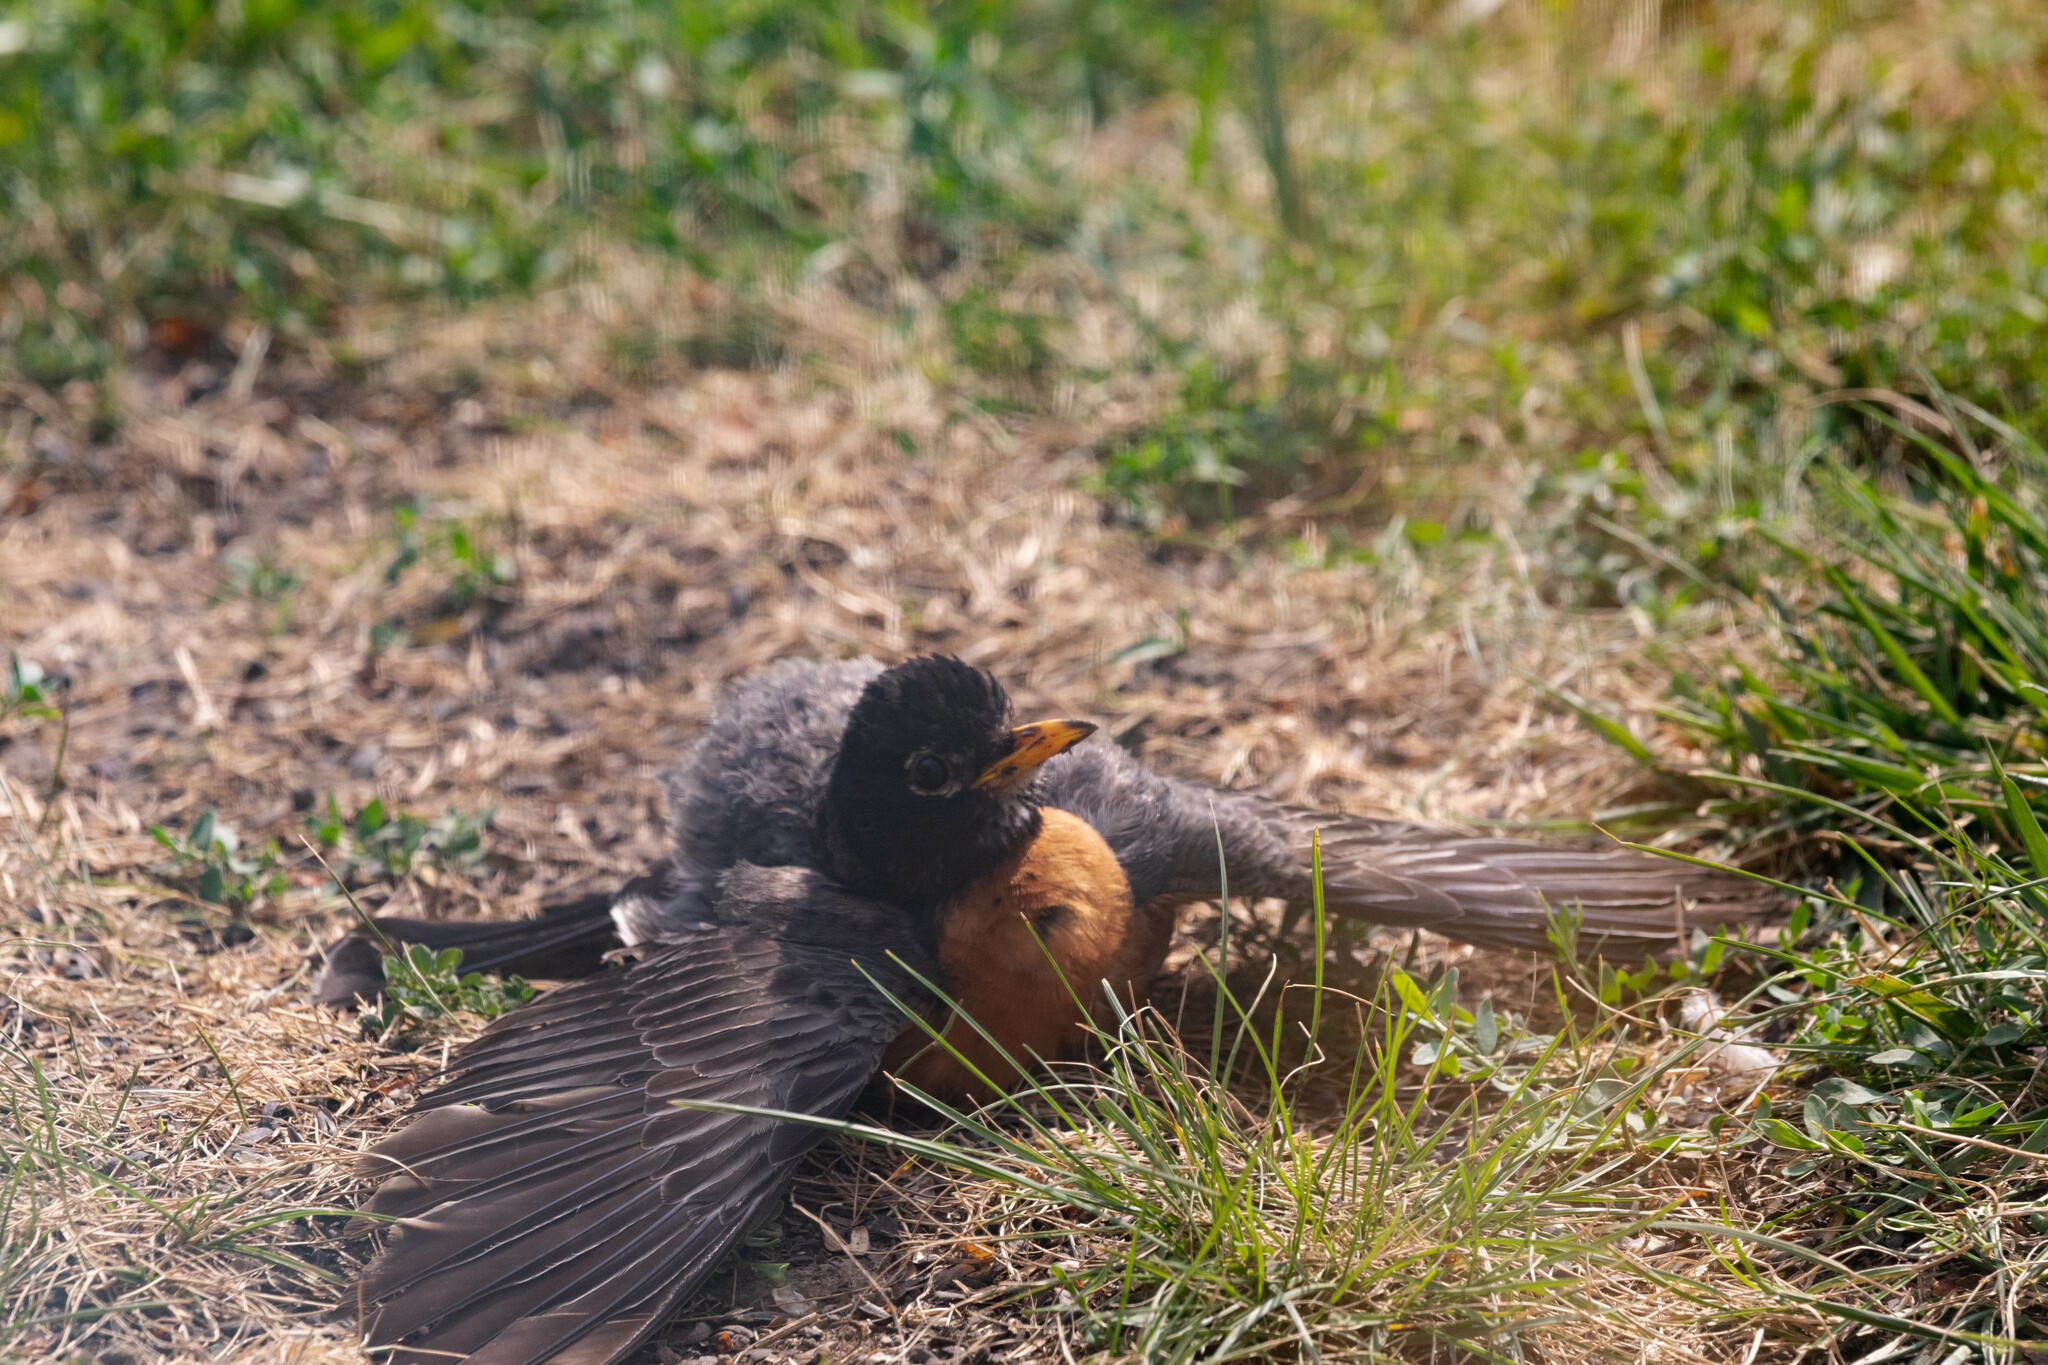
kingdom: Animalia
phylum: Chordata
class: Aves
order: Passeriformes
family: Turdidae
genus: Turdus
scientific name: Turdus migratorius
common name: American robin
